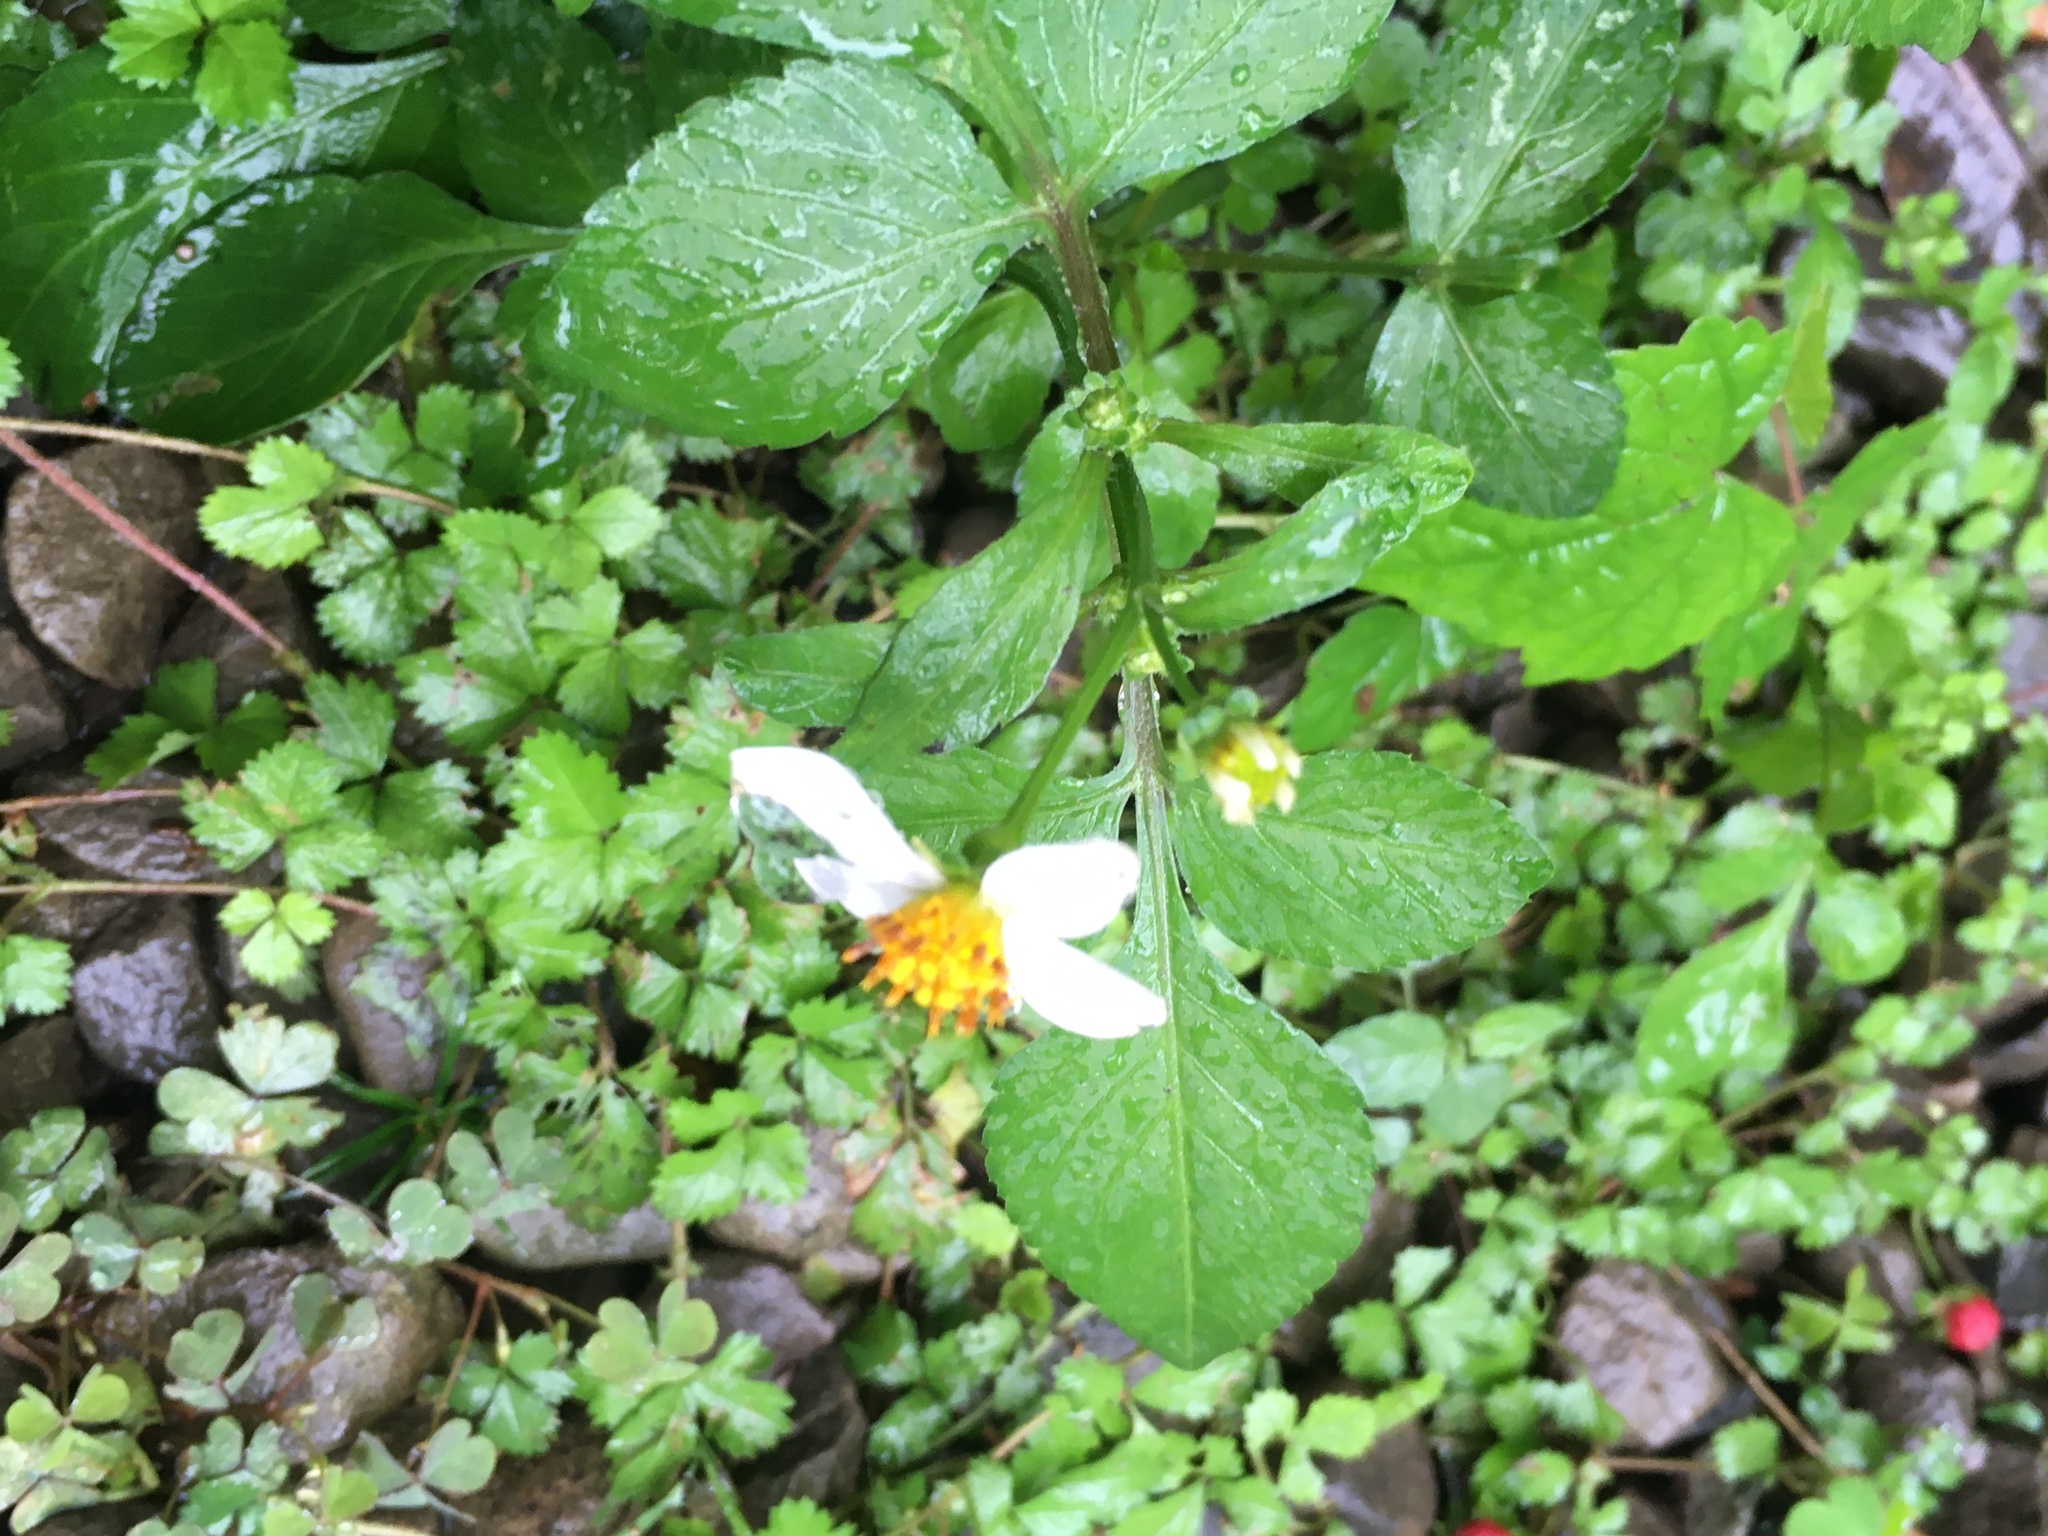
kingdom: Plantae
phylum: Tracheophyta
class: Magnoliopsida
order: Asterales
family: Asteraceae
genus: Bidens
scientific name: Bidens alba
